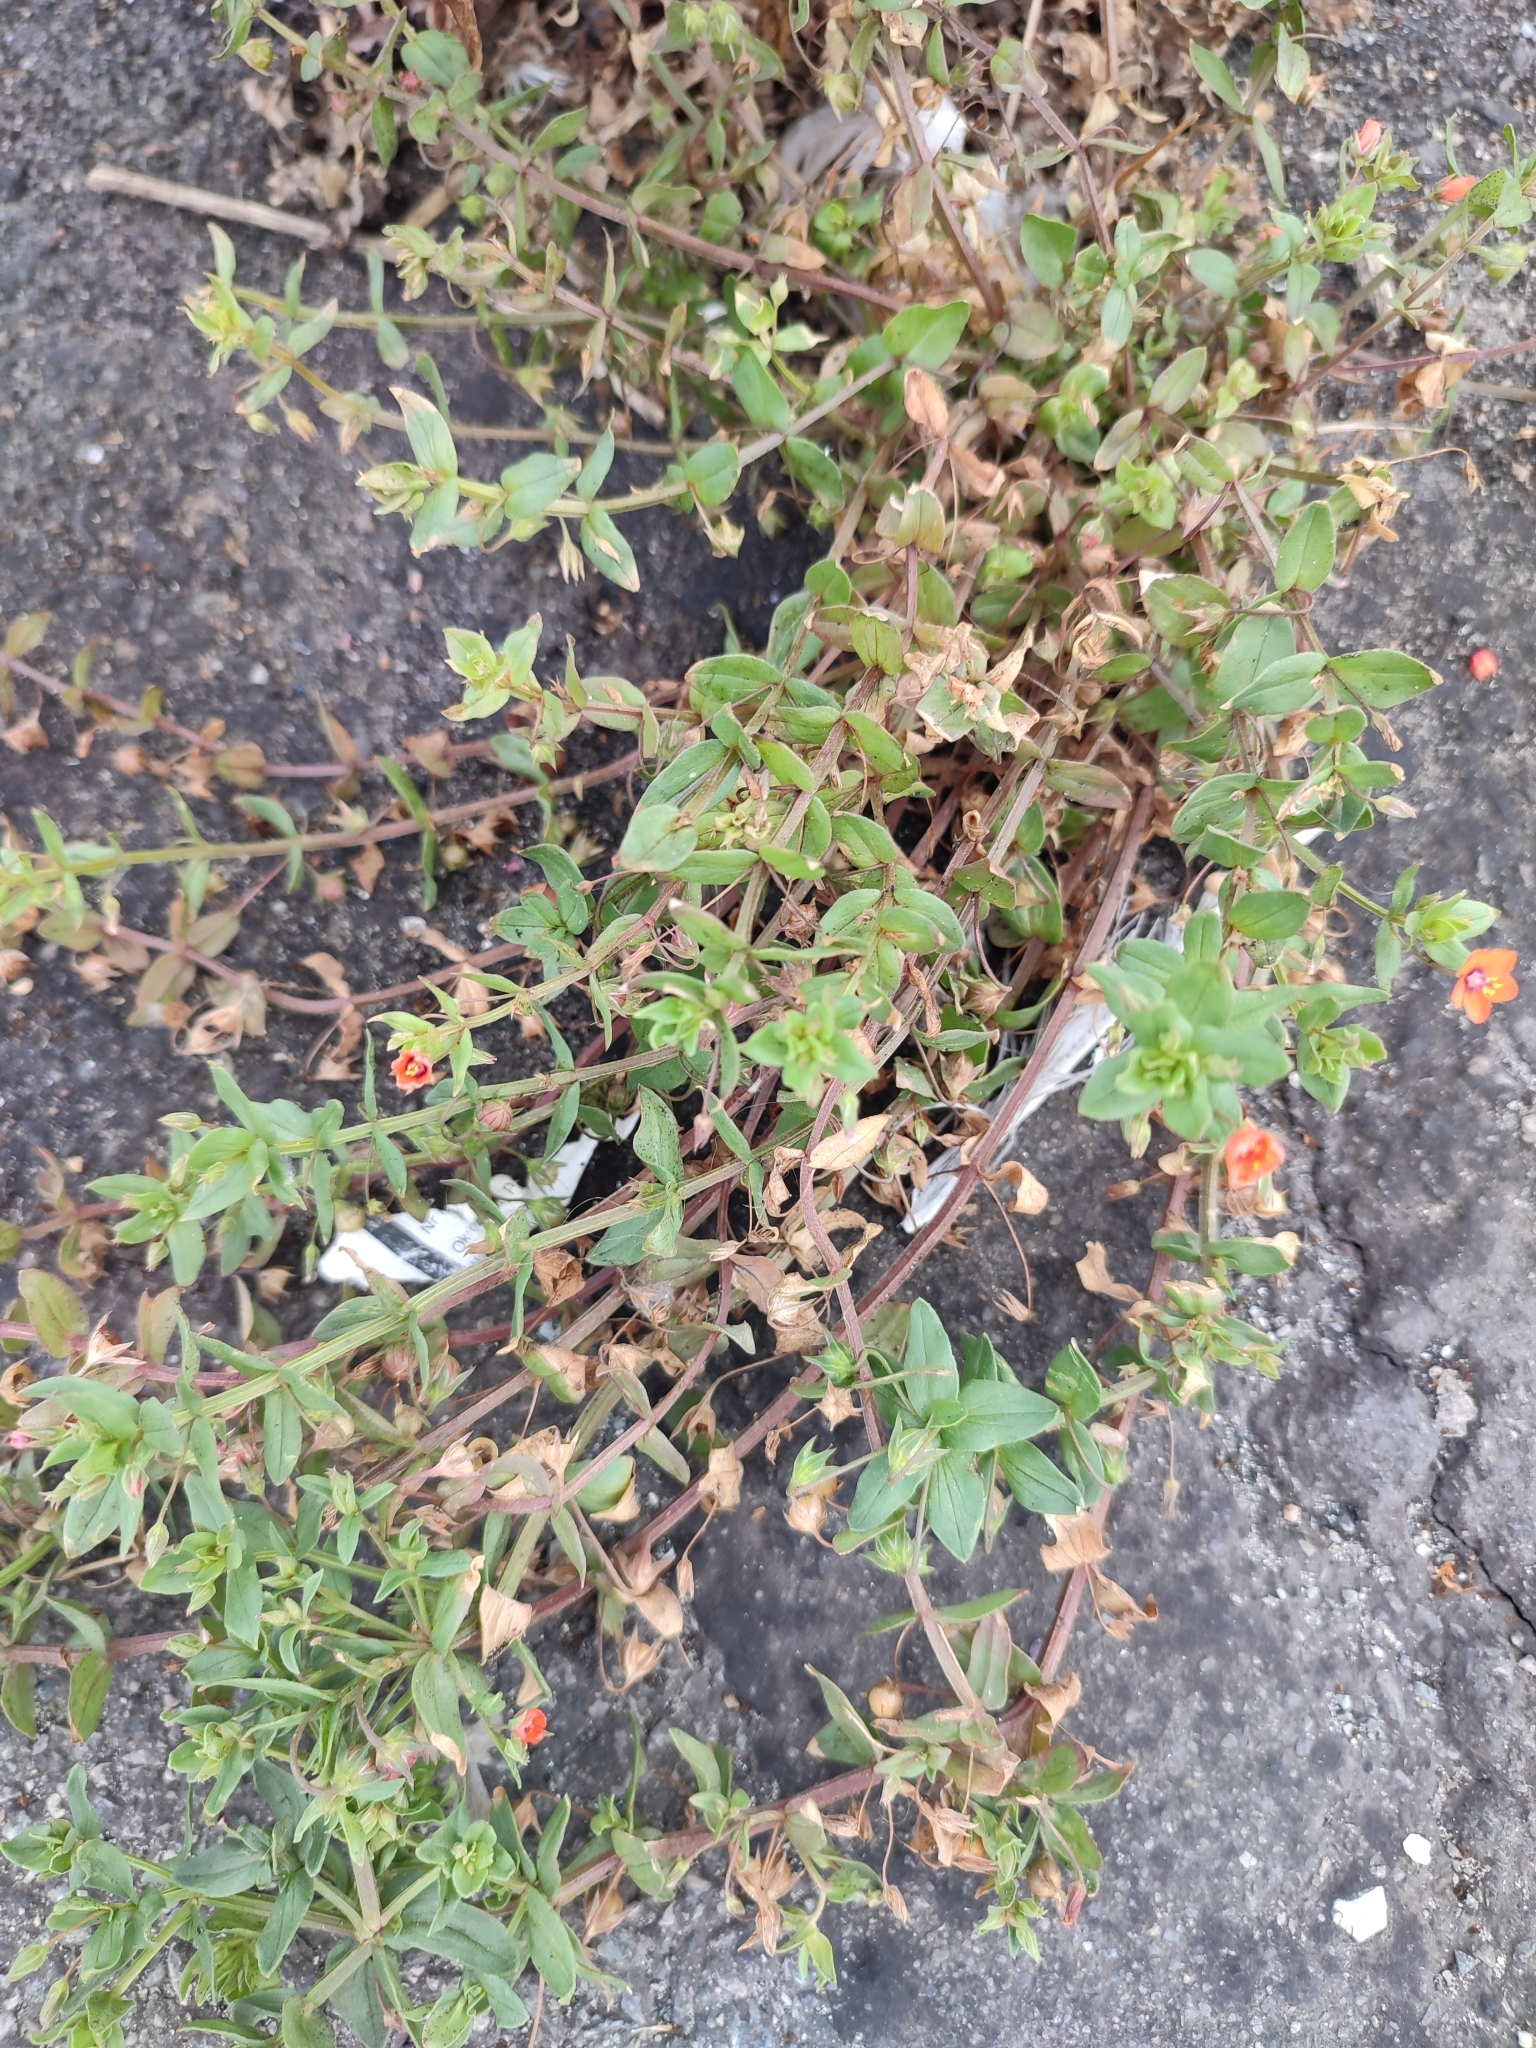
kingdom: Plantae
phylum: Tracheophyta
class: Magnoliopsida
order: Ericales
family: Primulaceae
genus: Lysimachia
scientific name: Lysimachia arvensis
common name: Scarlet pimpernel
